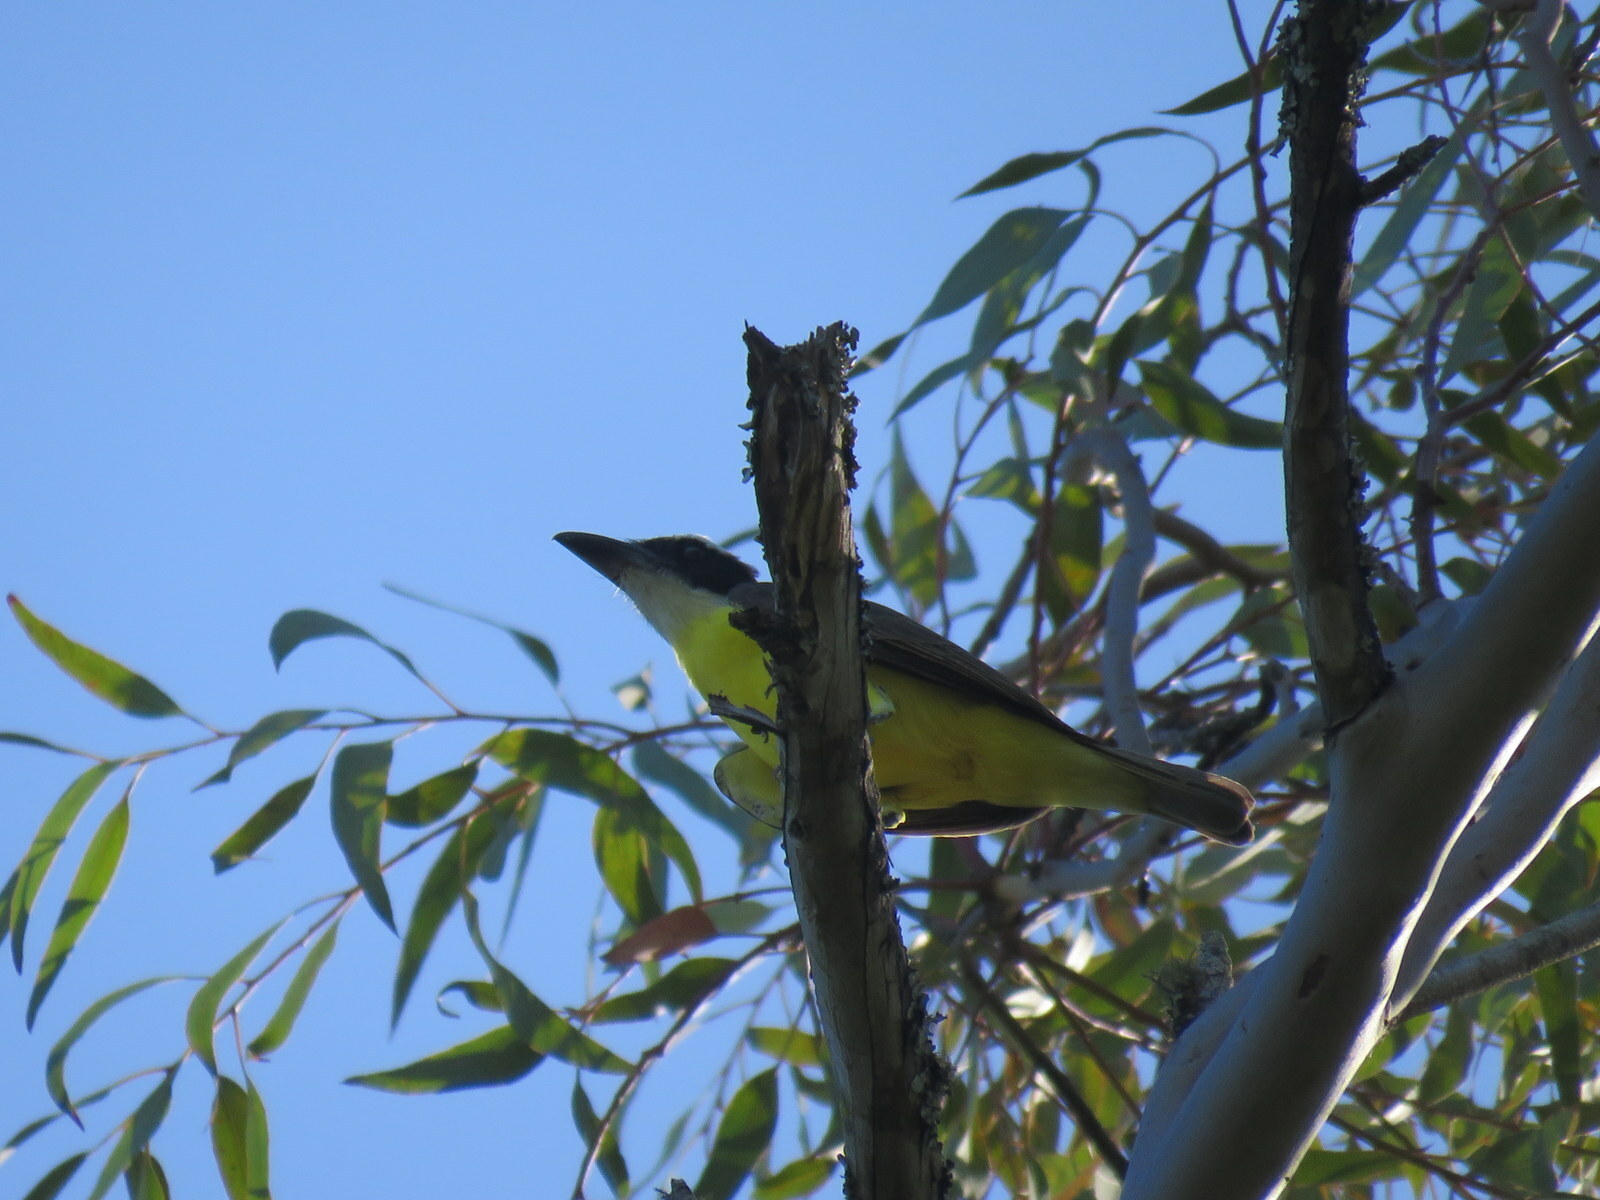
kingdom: Animalia
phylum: Chordata
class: Aves
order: Passeriformes
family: Tyrannidae
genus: Megarynchus
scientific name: Megarynchus pitangua
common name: Boat-billed flycatcher
